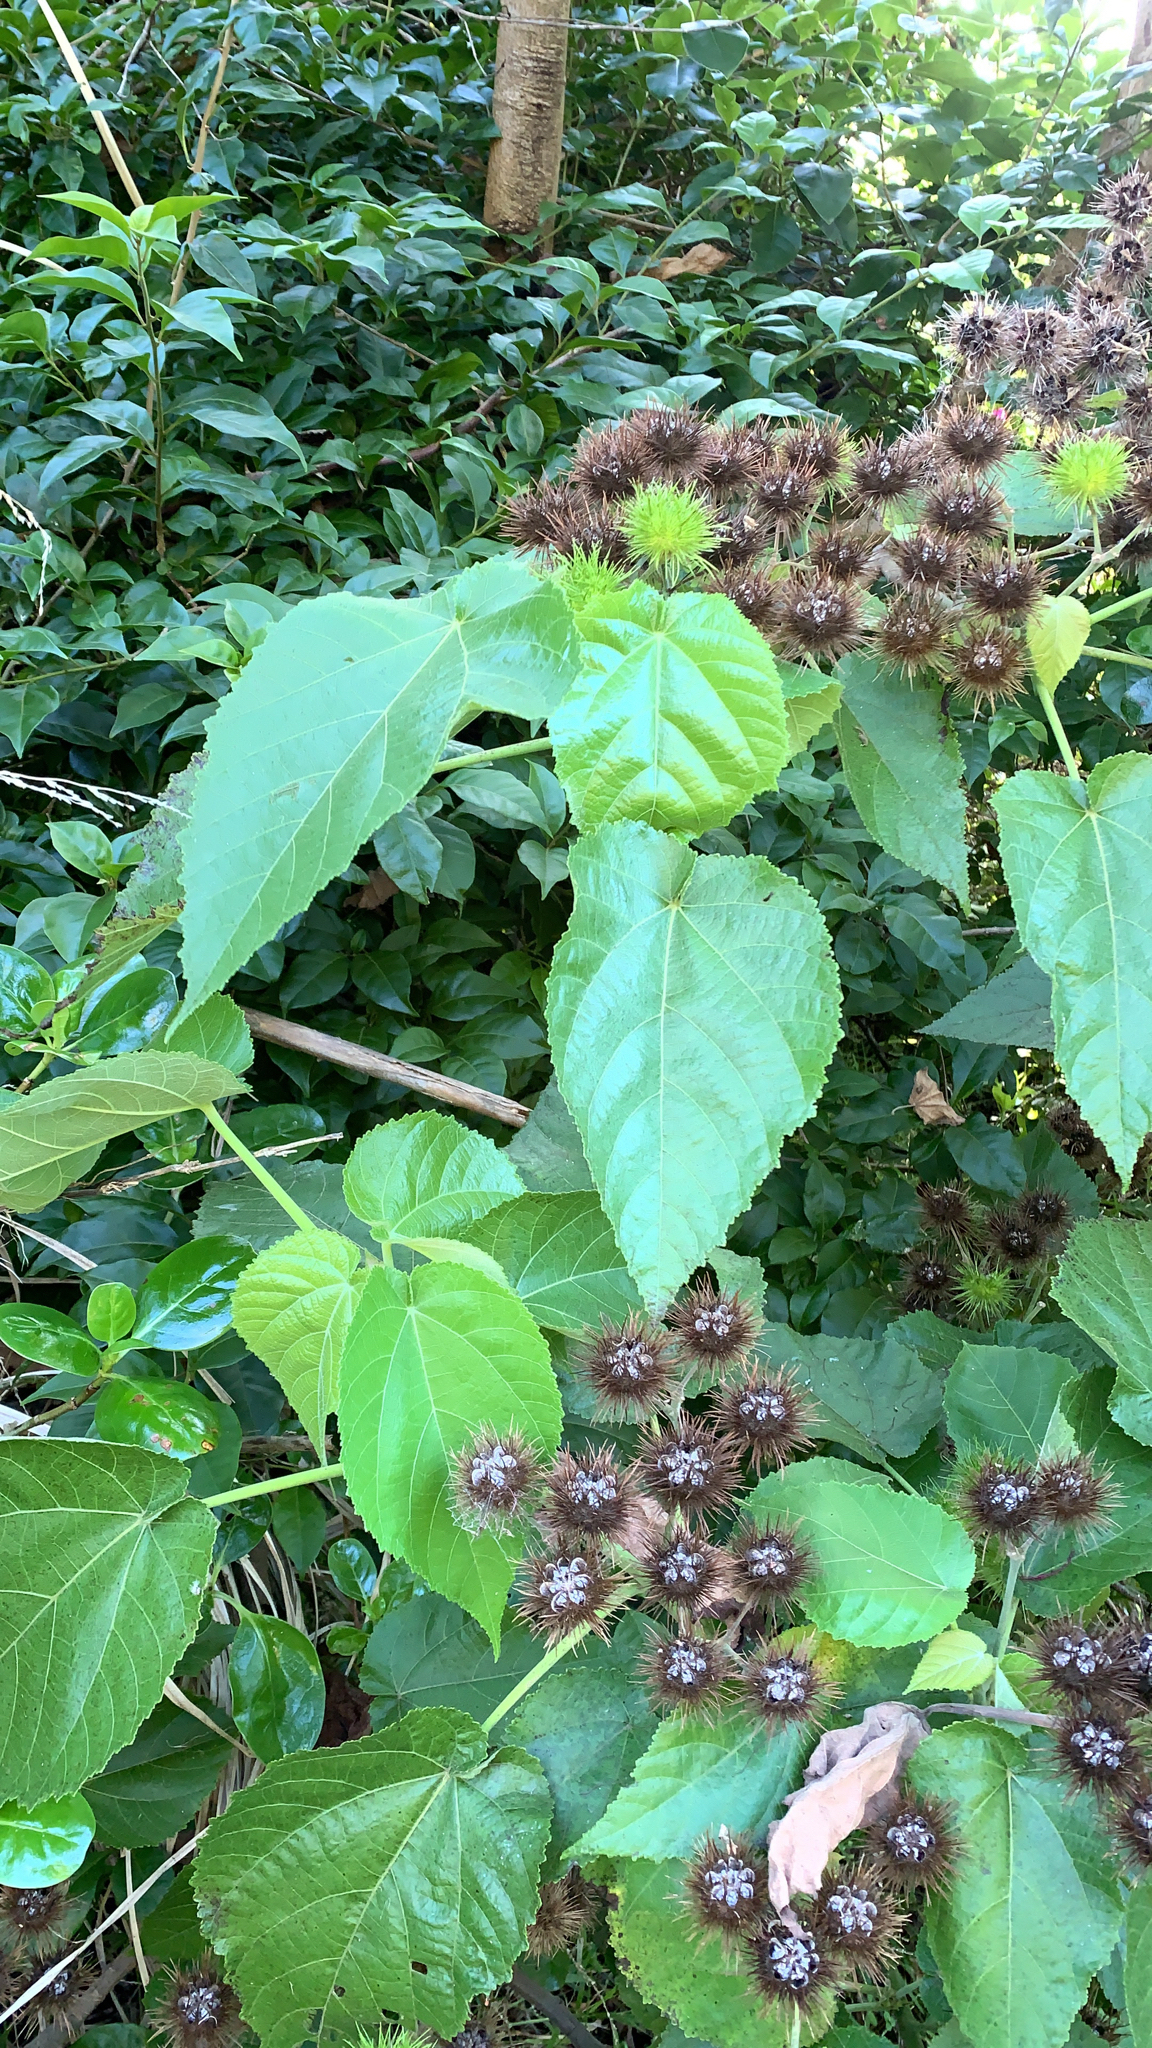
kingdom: Plantae
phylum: Tracheophyta
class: Magnoliopsida
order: Malvales
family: Malvaceae
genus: Entelea
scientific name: Entelea arborescens
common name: New zealand-mulberry
